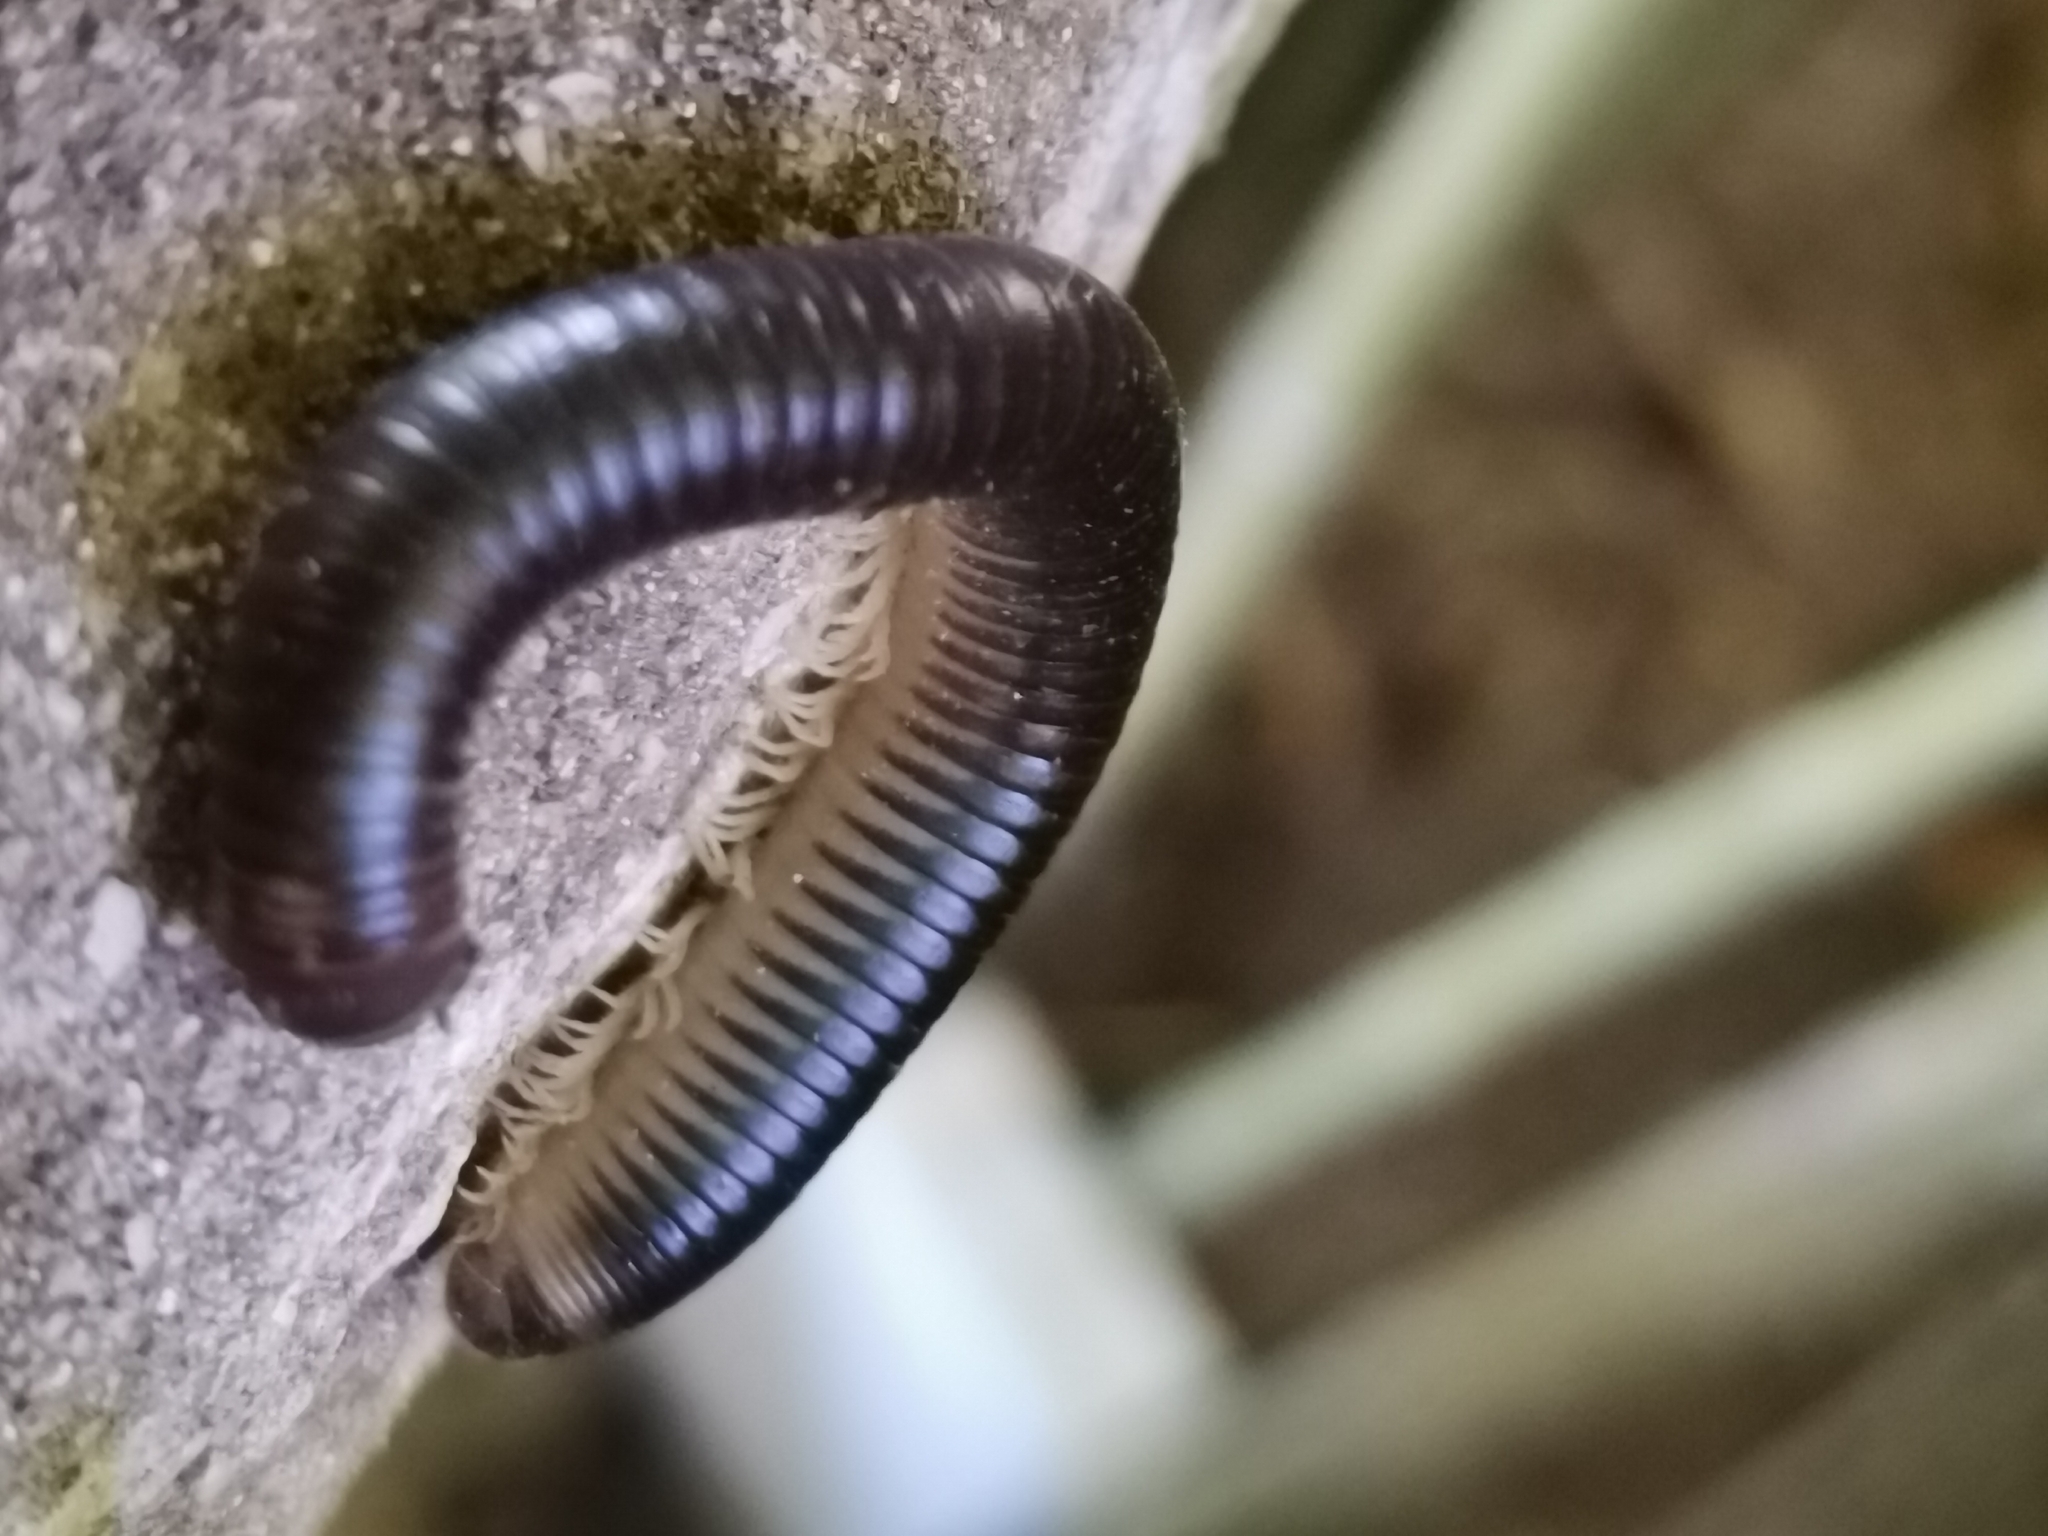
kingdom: Animalia
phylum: Arthropoda
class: Diplopoda
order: Julida
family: Julidae
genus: Pachyiulus
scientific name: Pachyiulus flavipes
